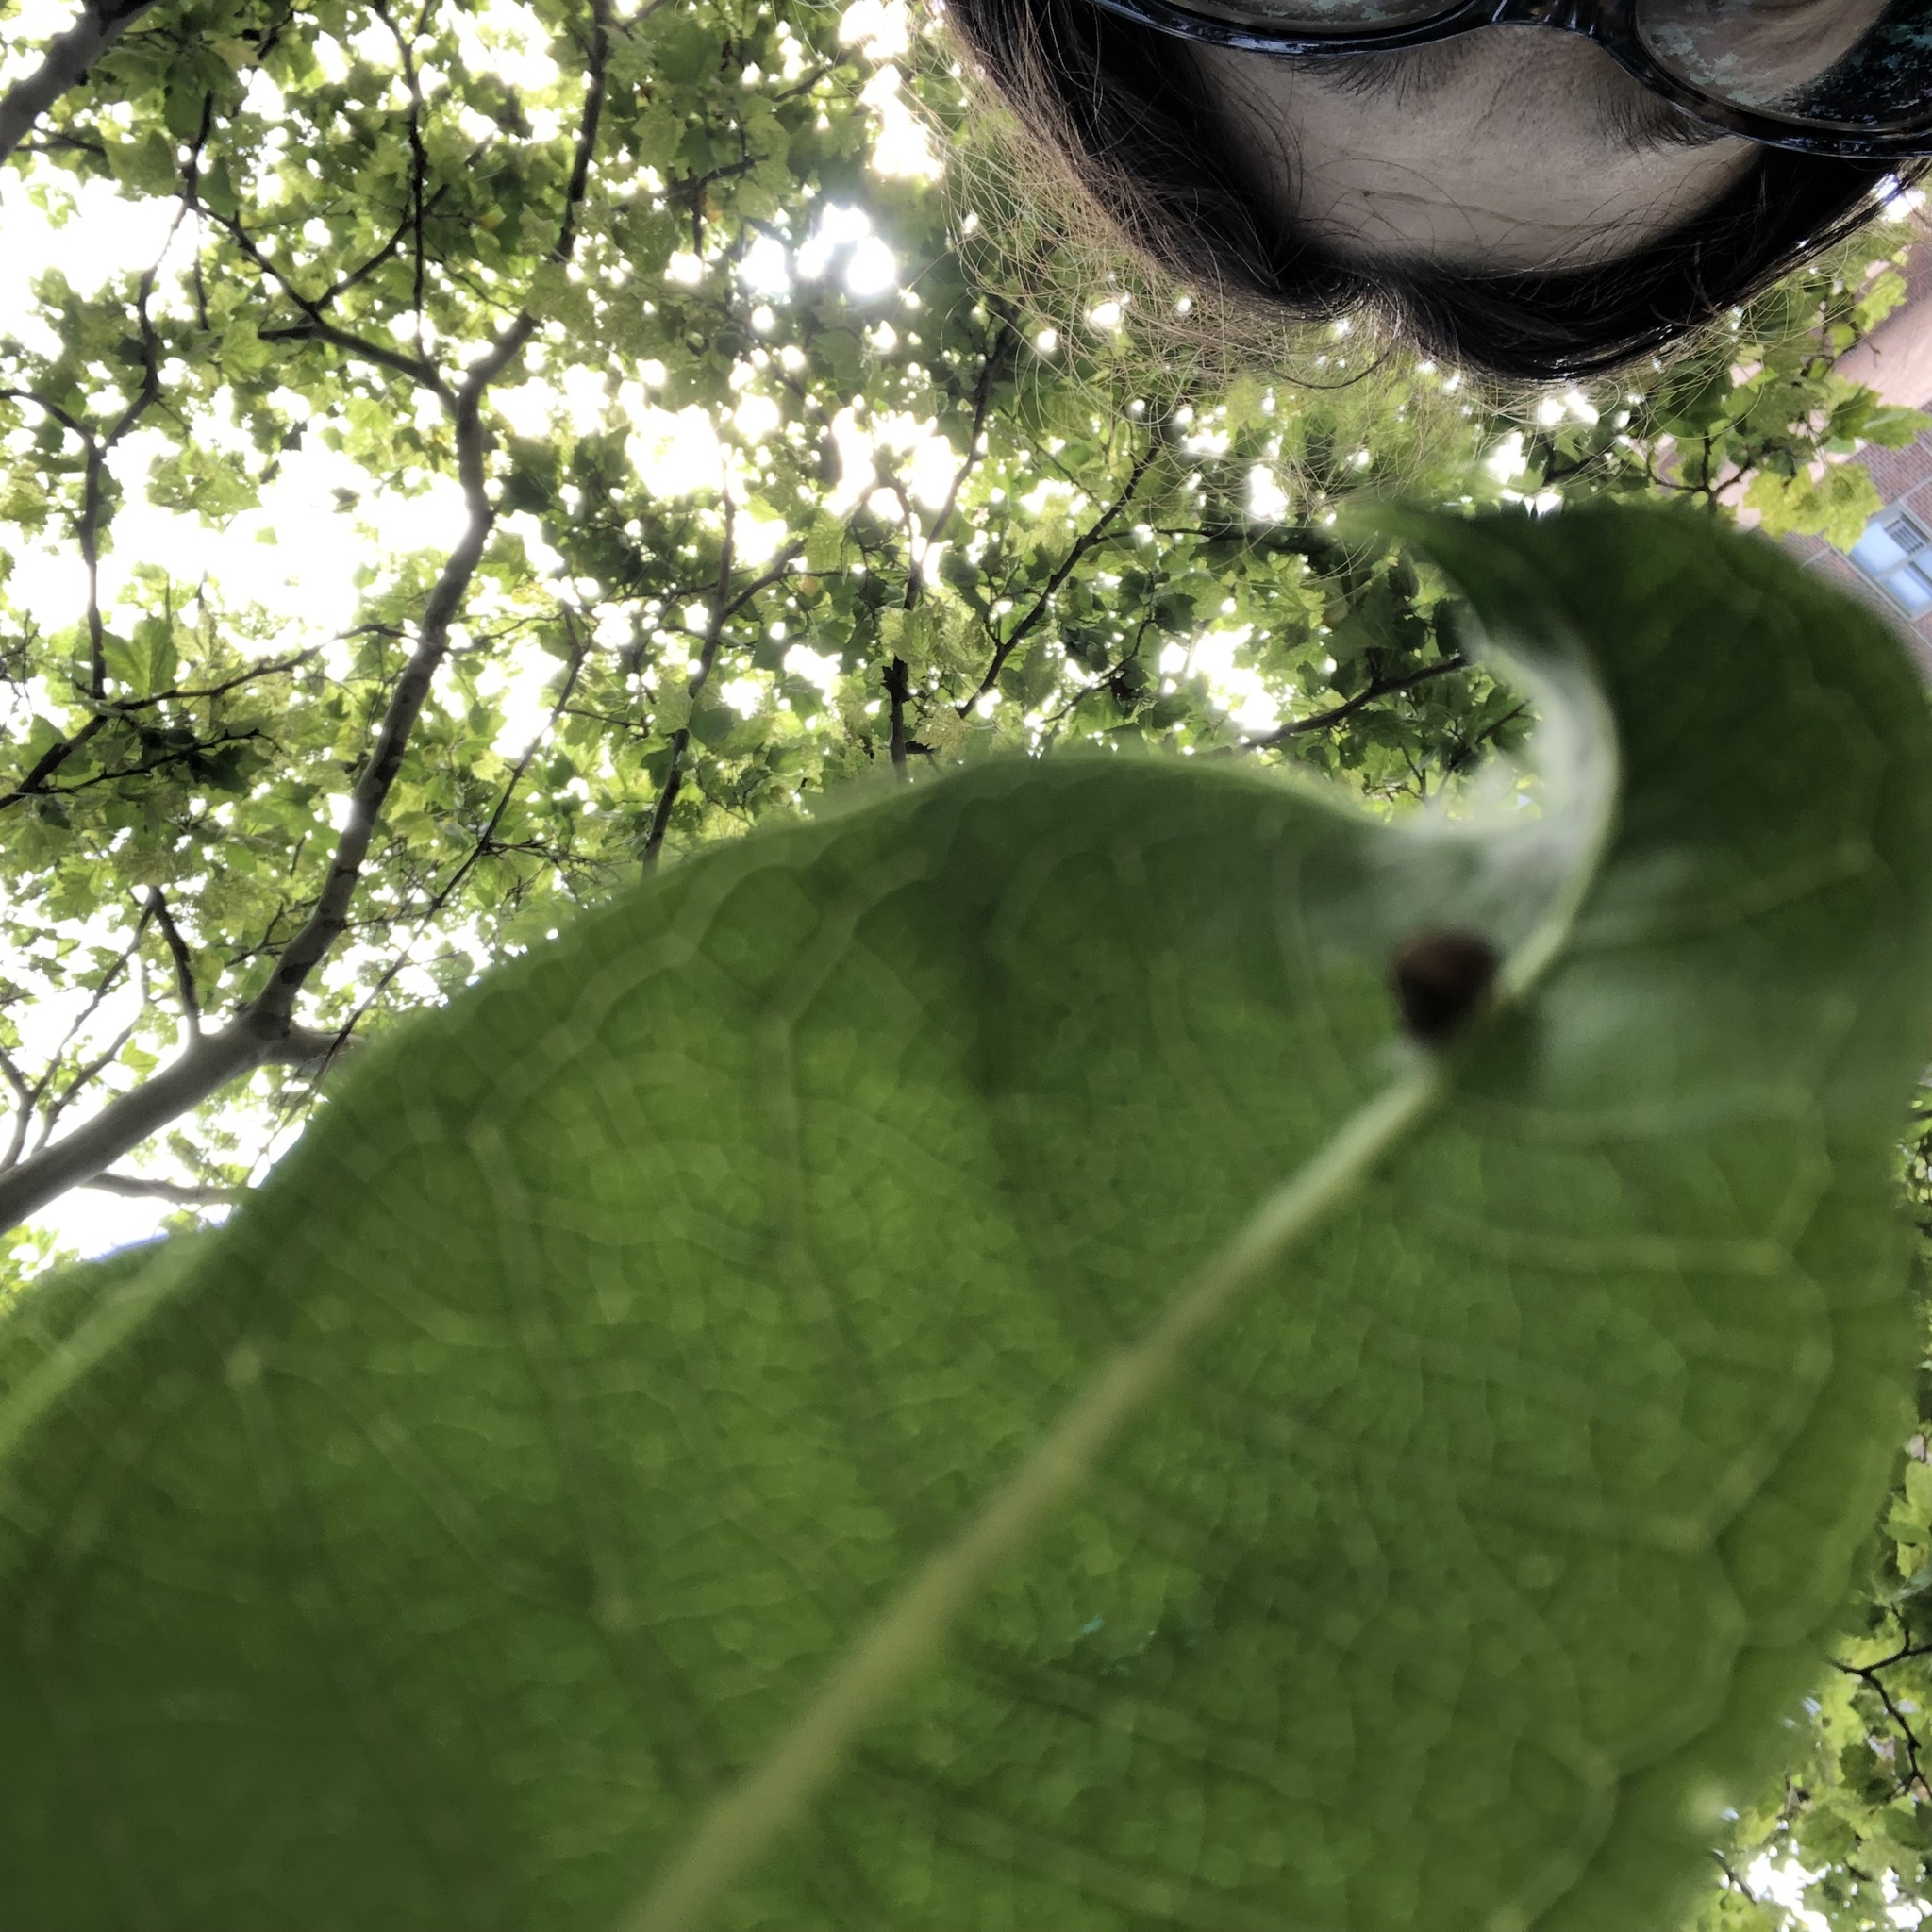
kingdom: Plantae
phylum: Tracheophyta
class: Magnoliopsida
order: Gentianales
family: Apocynaceae
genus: Asclepias
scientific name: Asclepias syriaca
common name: Common milkweed
